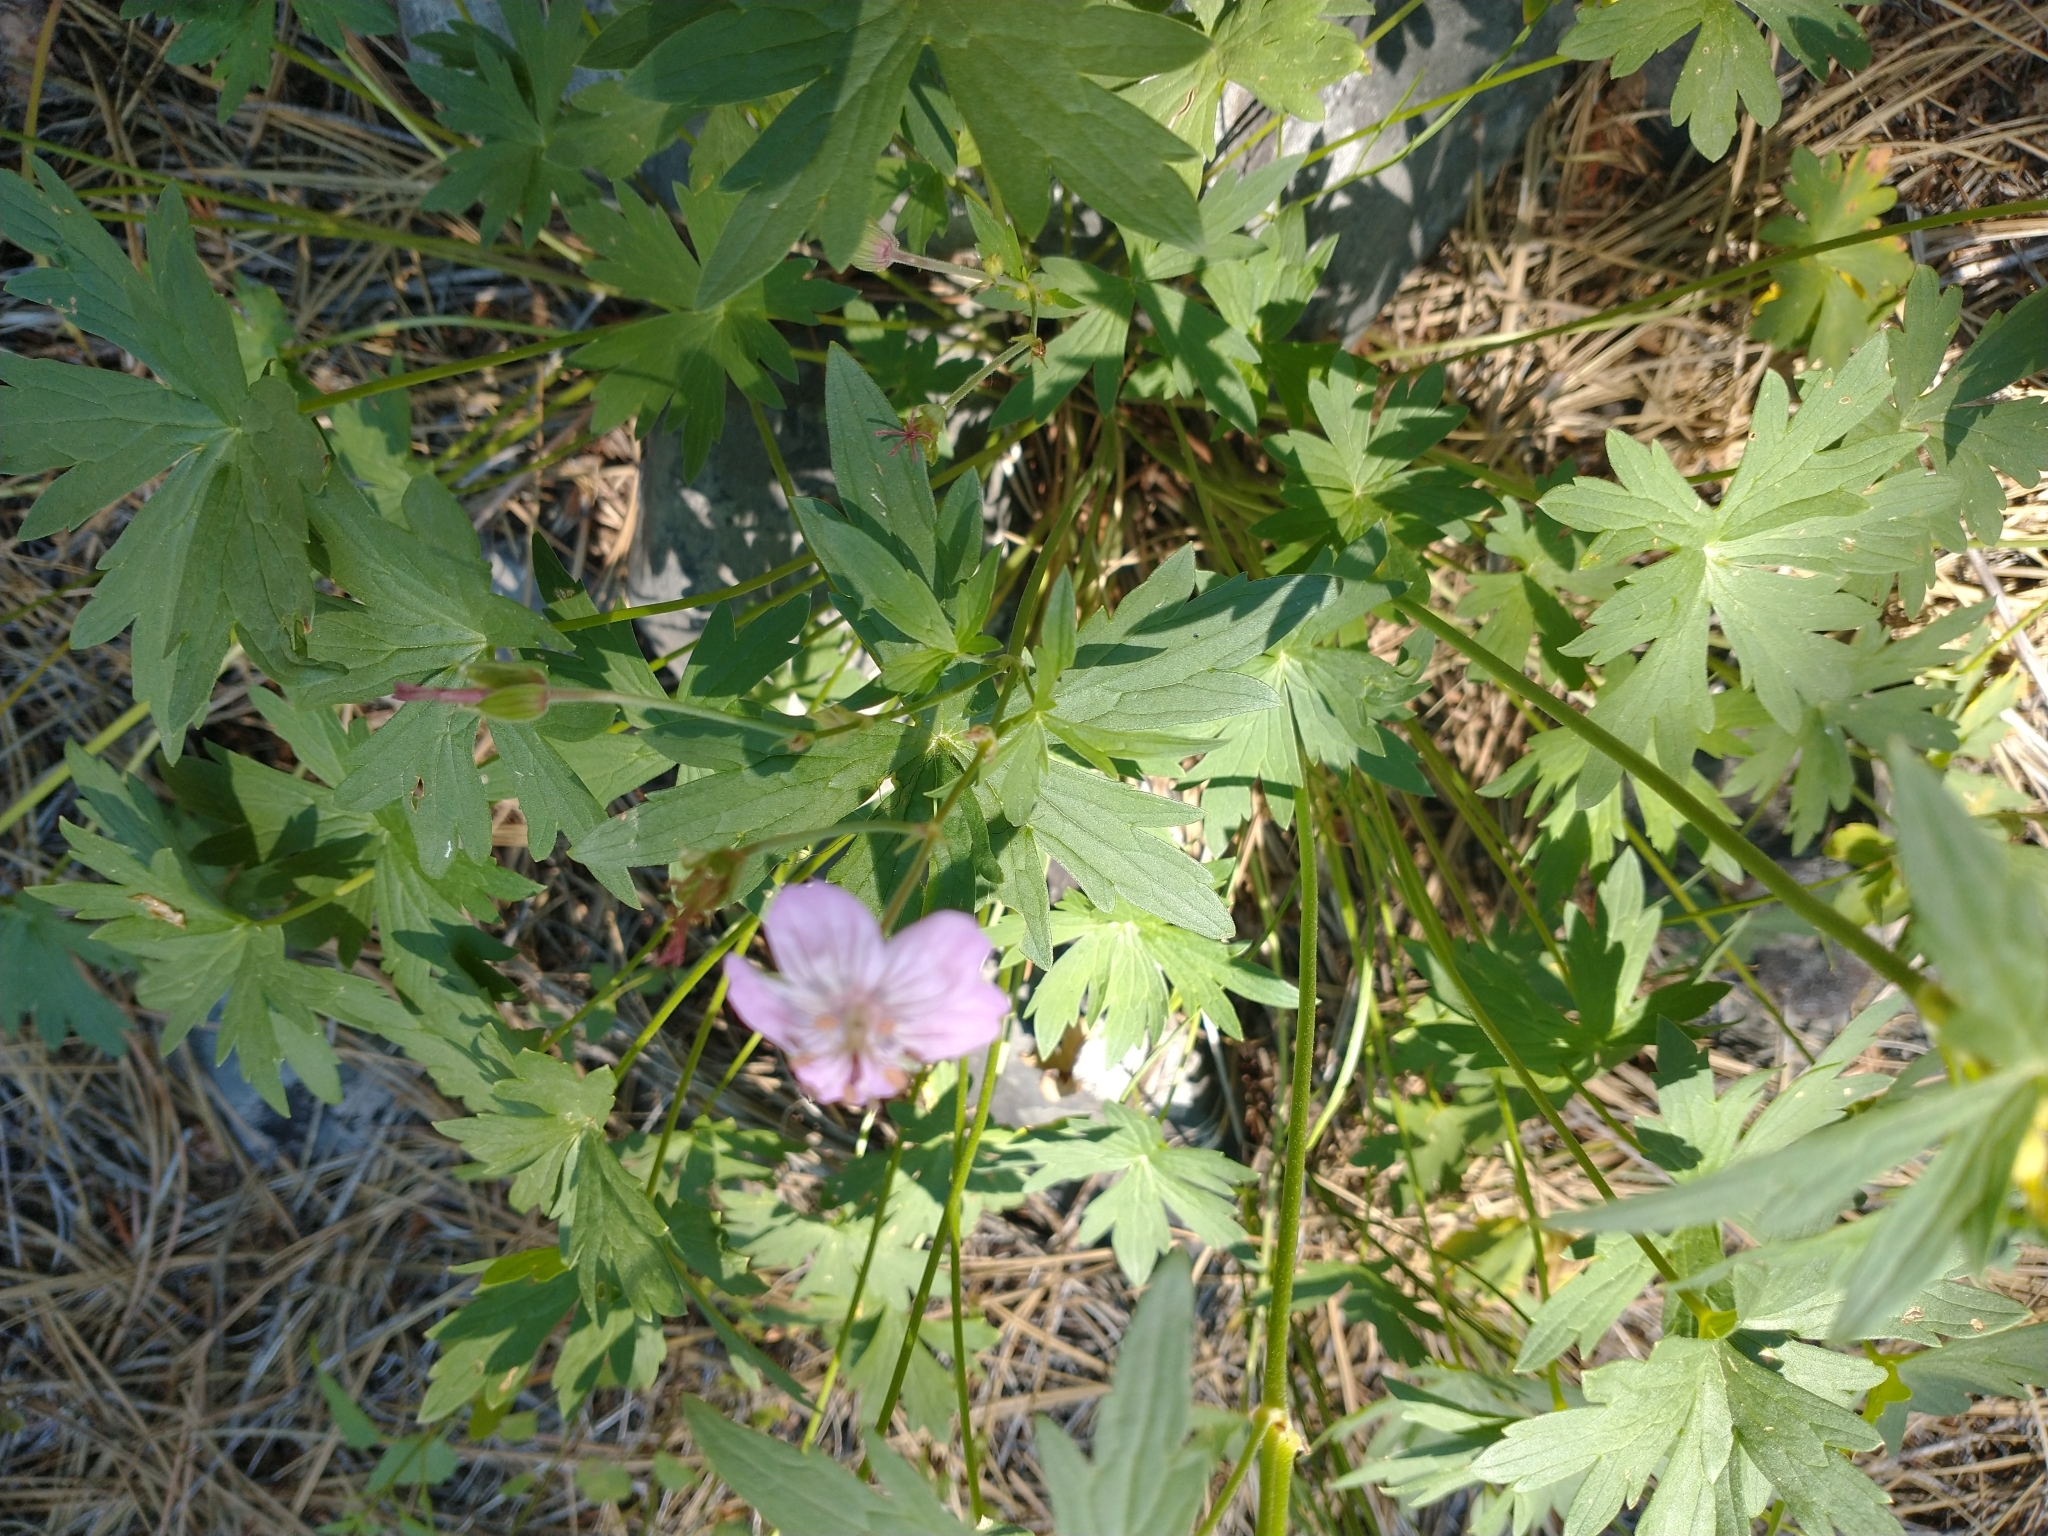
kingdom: Plantae
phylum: Tracheophyta
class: Magnoliopsida
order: Geraniales
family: Geraniaceae
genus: Geranium
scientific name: Geranium viscosissimum
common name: Purple geranium
